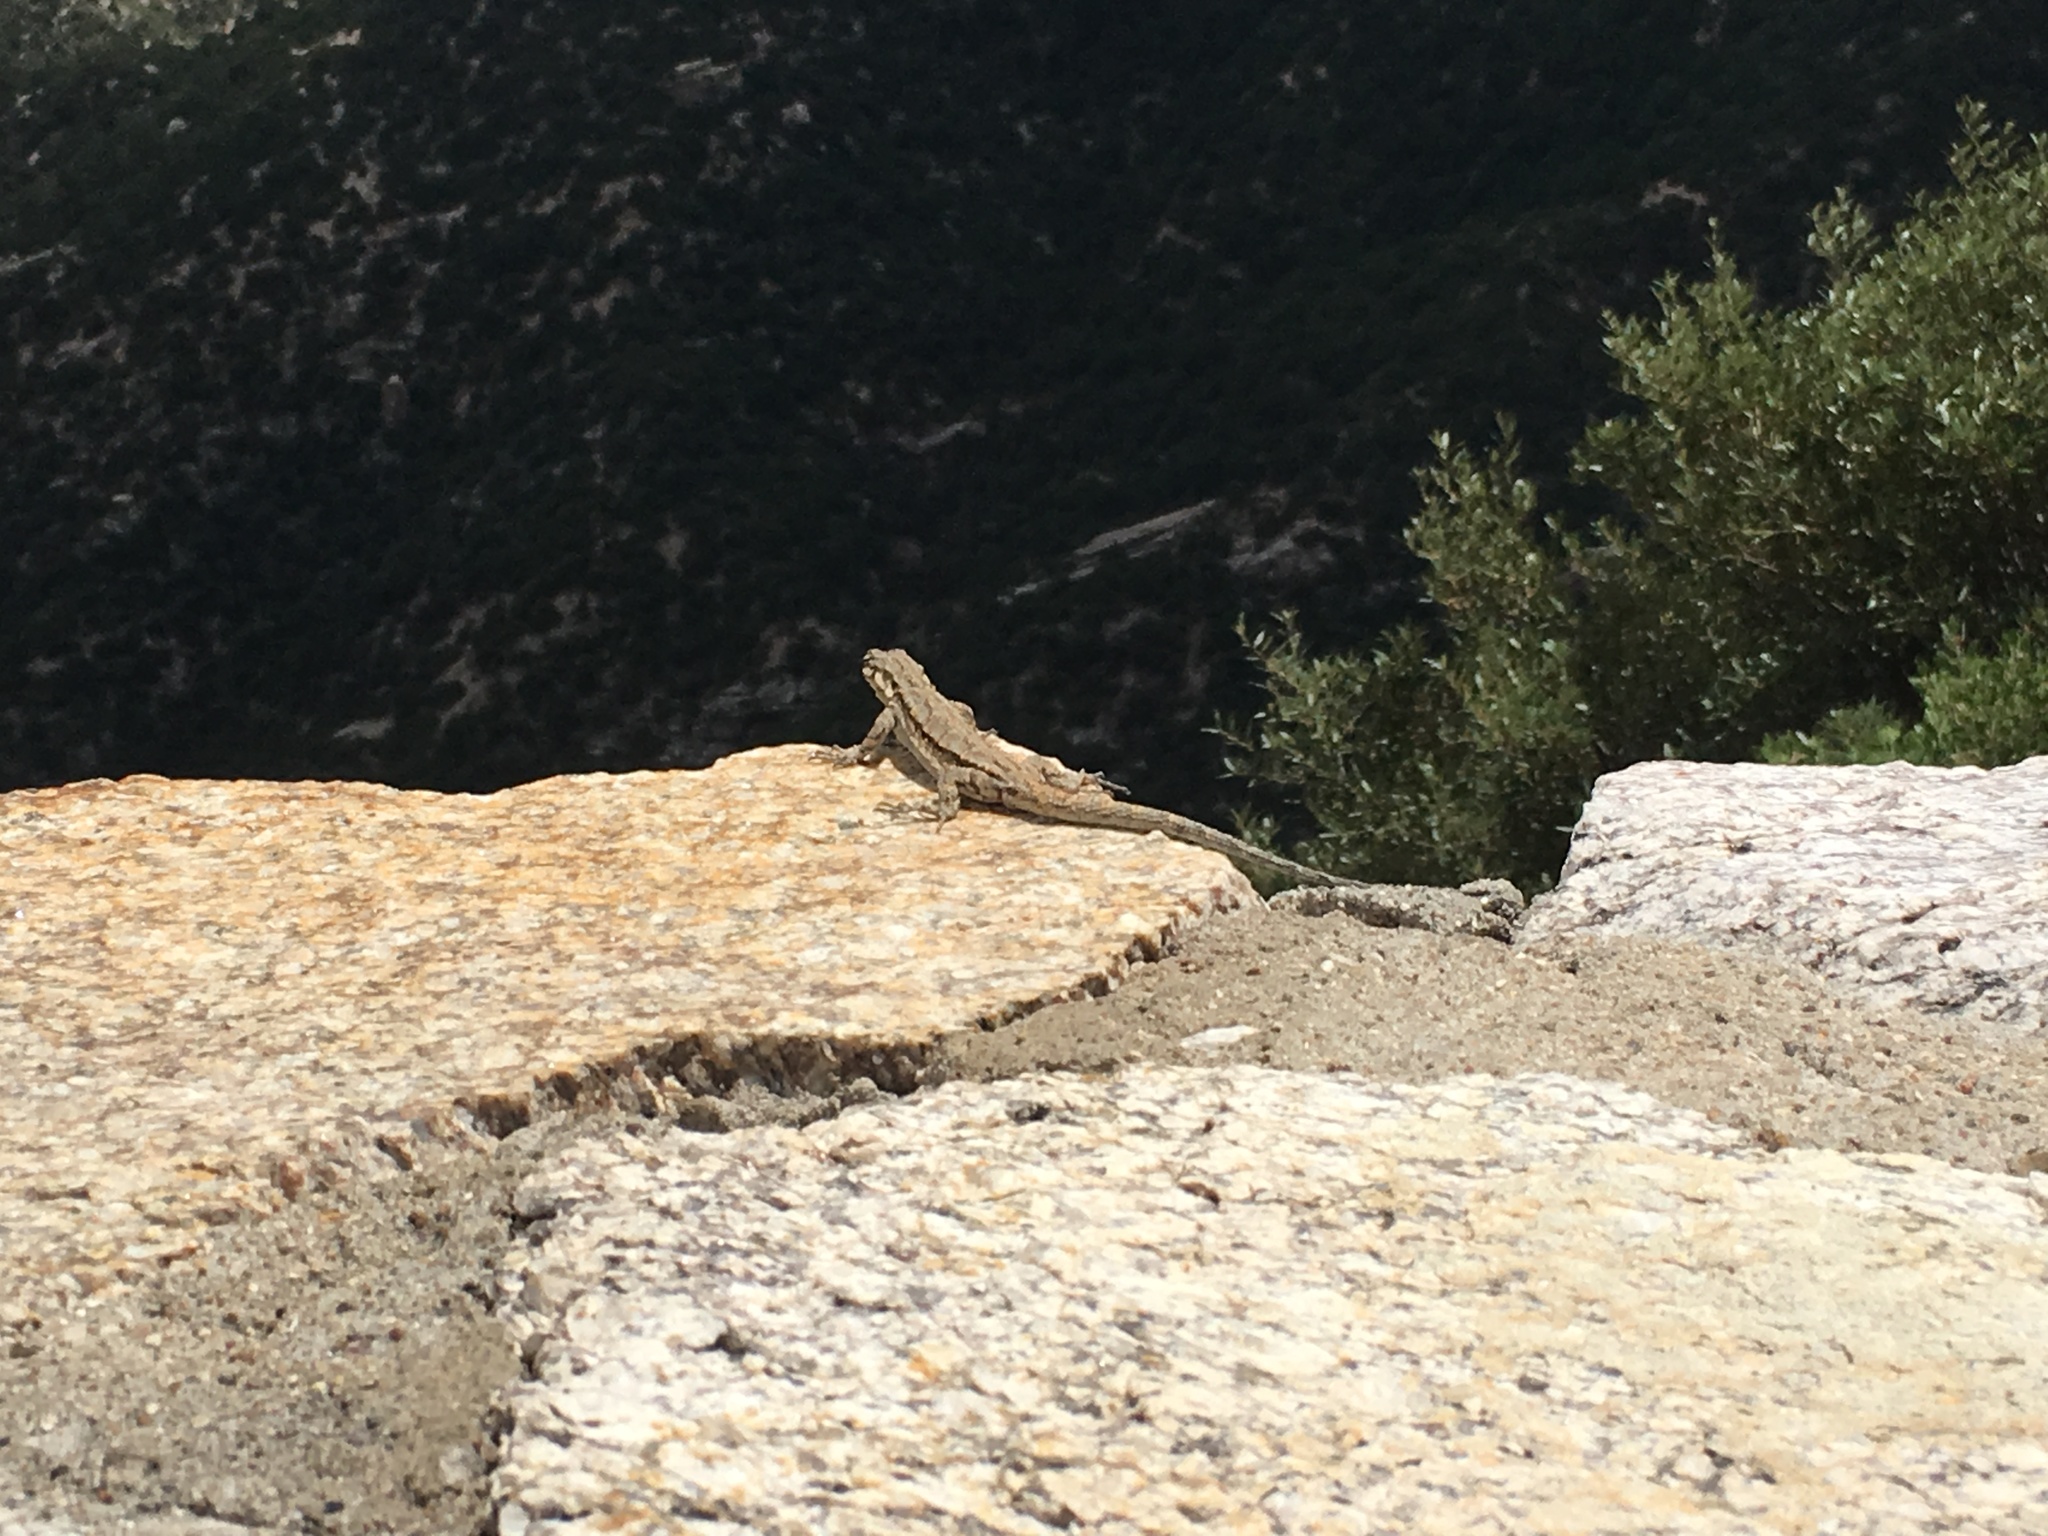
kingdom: Animalia
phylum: Chordata
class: Squamata
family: Phrynosomatidae
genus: Urosaurus
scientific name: Urosaurus ornatus
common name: Ornate tree lizard
